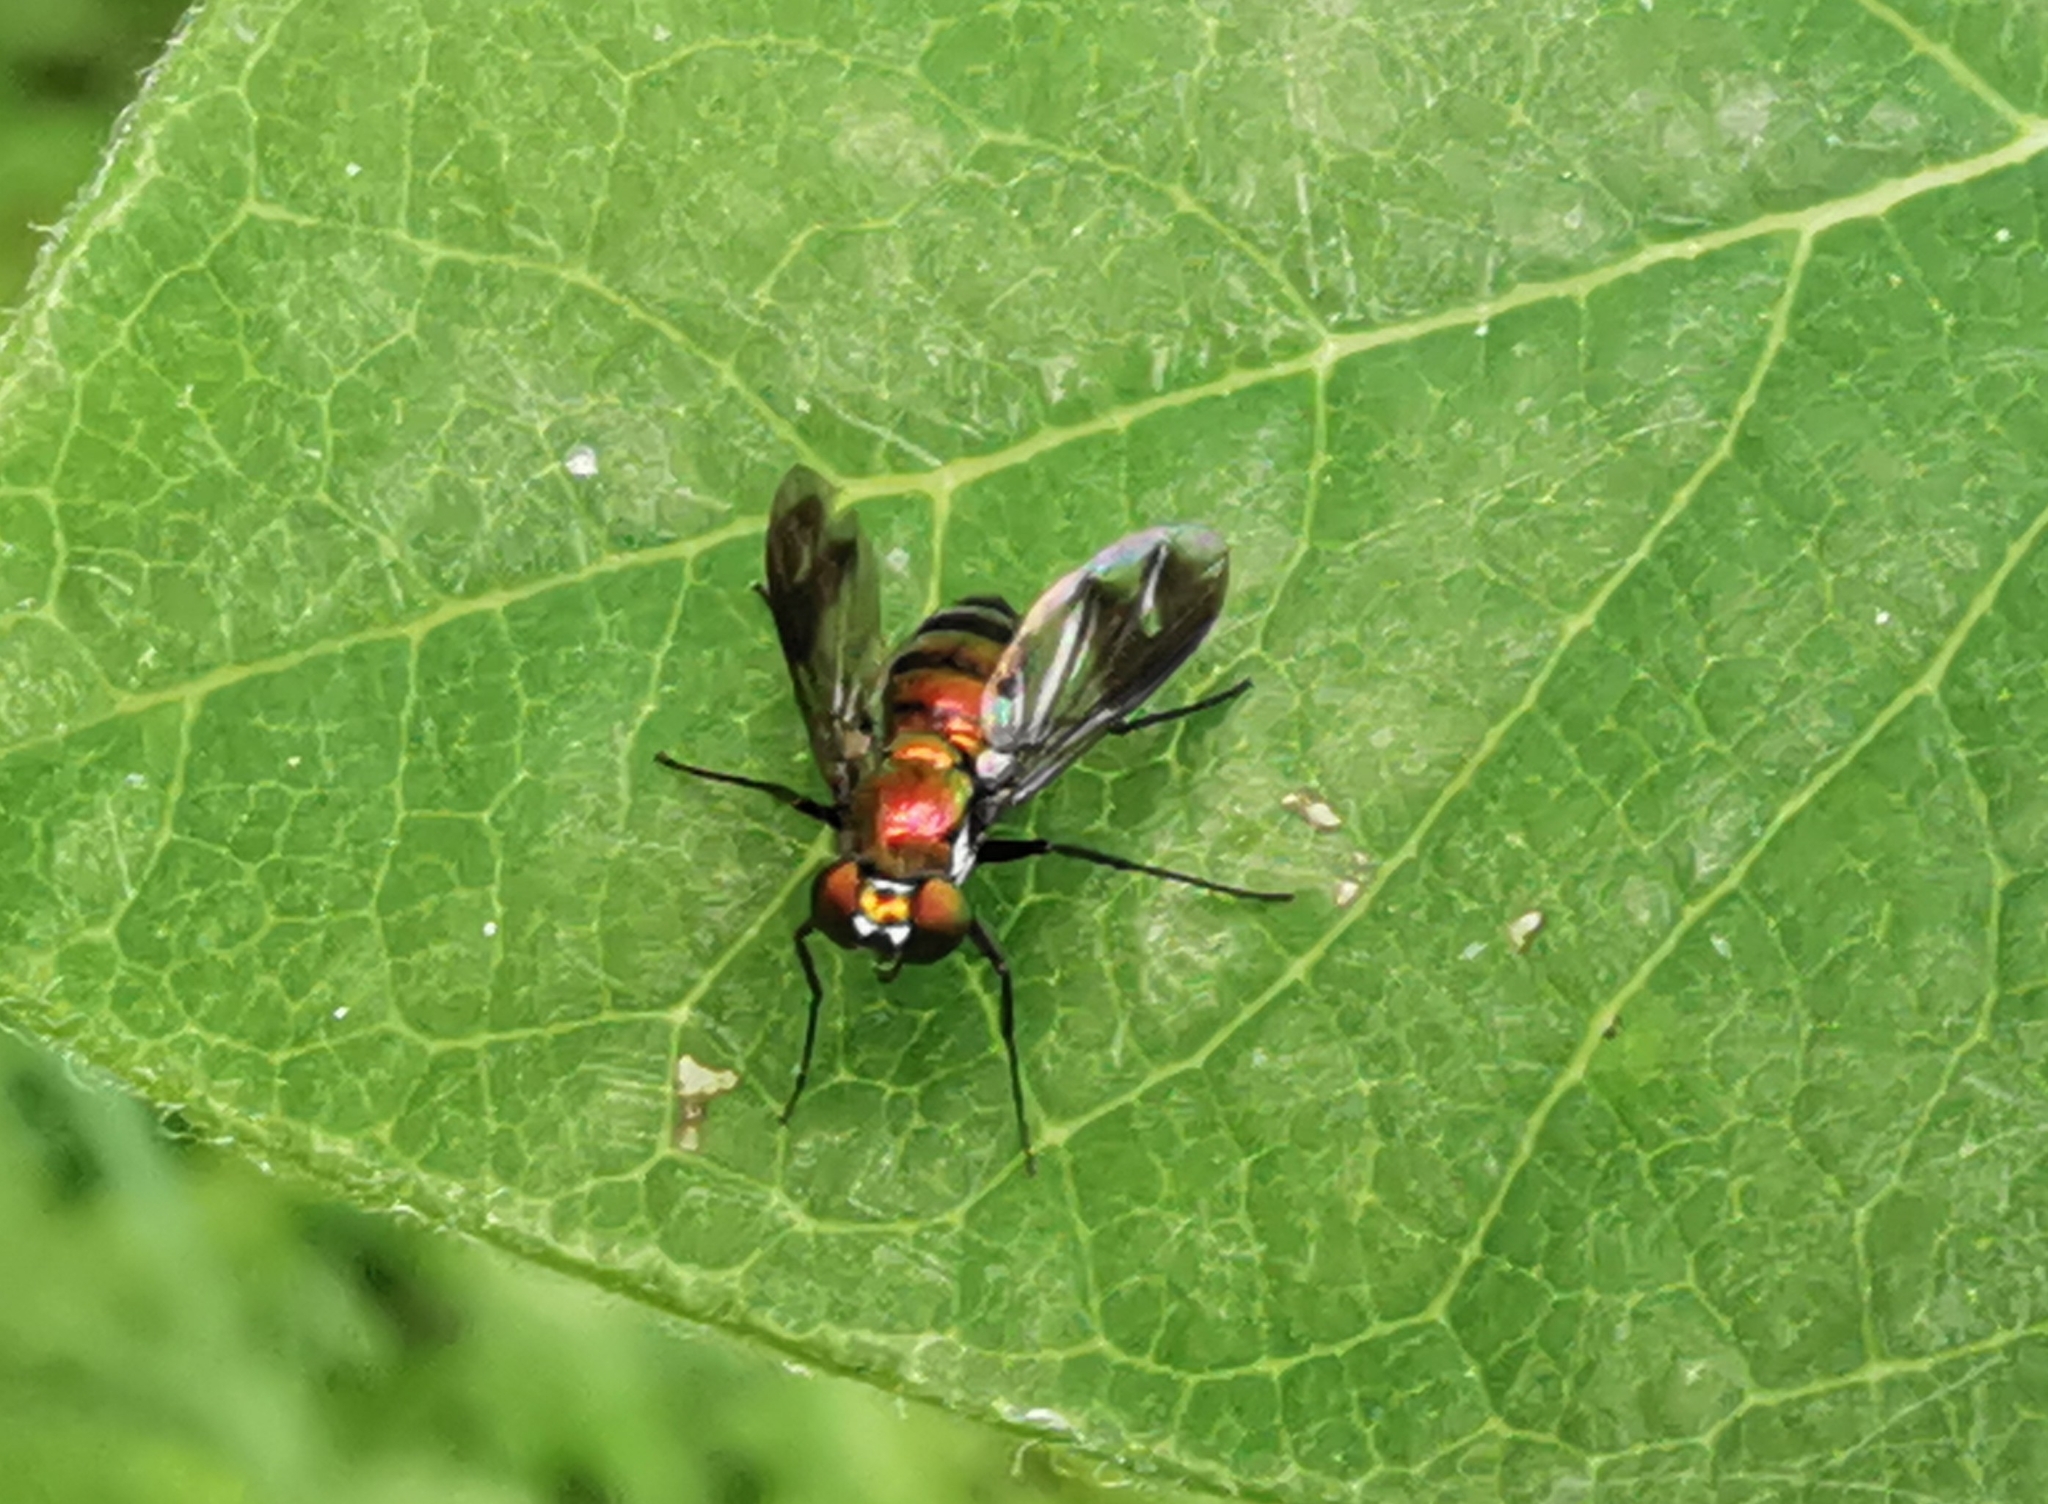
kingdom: Animalia
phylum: Arthropoda
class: Insecta
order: Diptera
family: Dolichopodidae
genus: Condylostylus
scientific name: Condylostylus patibulatus
